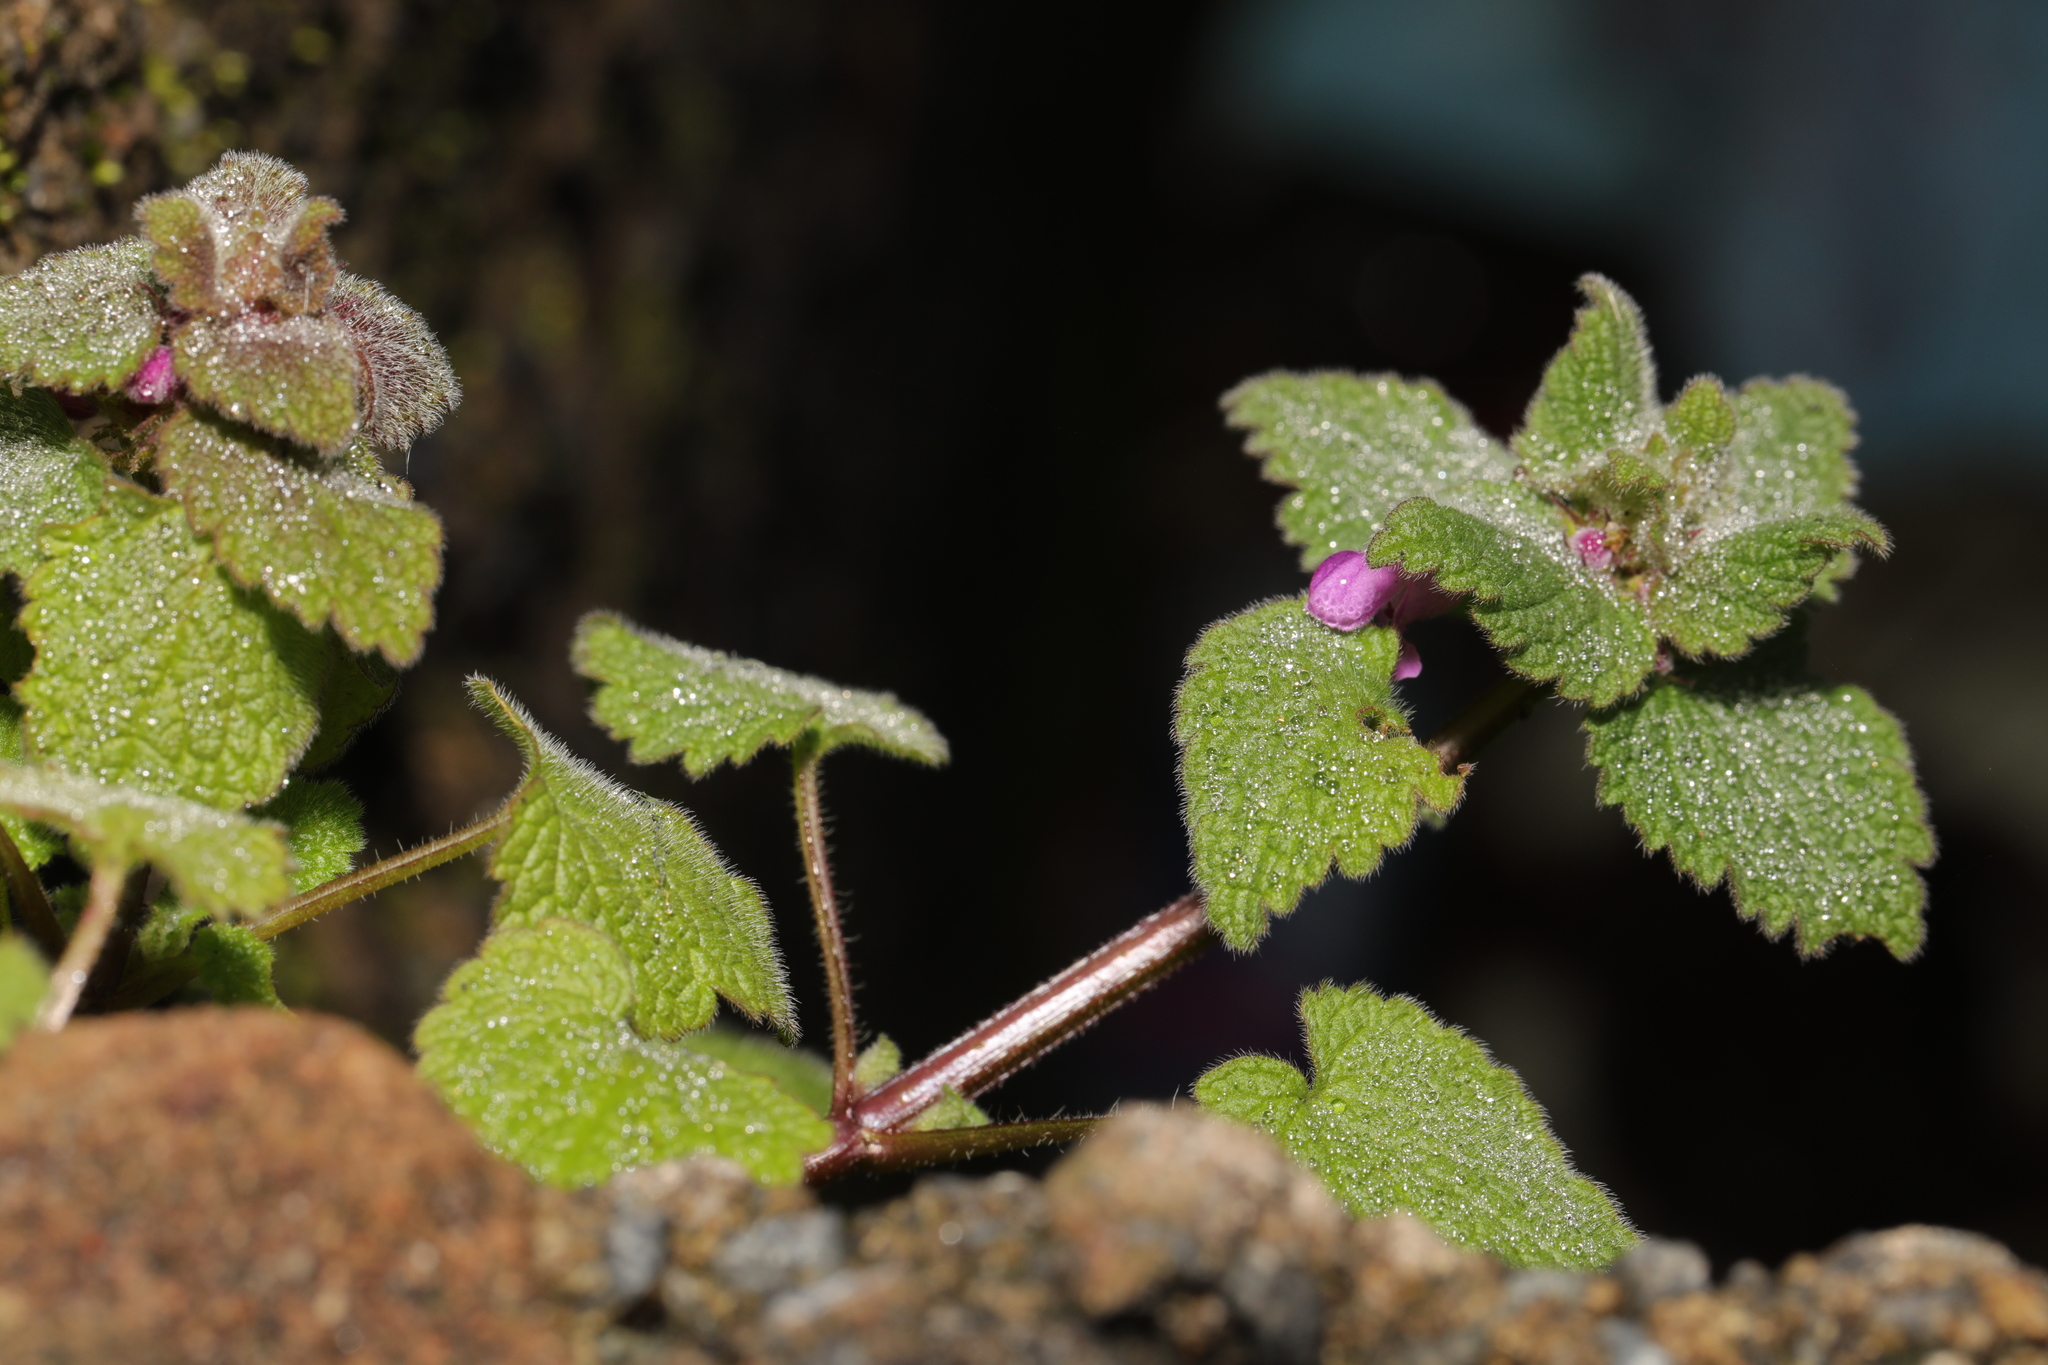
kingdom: Plantae
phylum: Tracheophyta
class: Magnoliopsida
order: Lamiales
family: Lamiaceae
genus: Lamium
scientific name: Lamium purpureum
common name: Red dead-nettle
